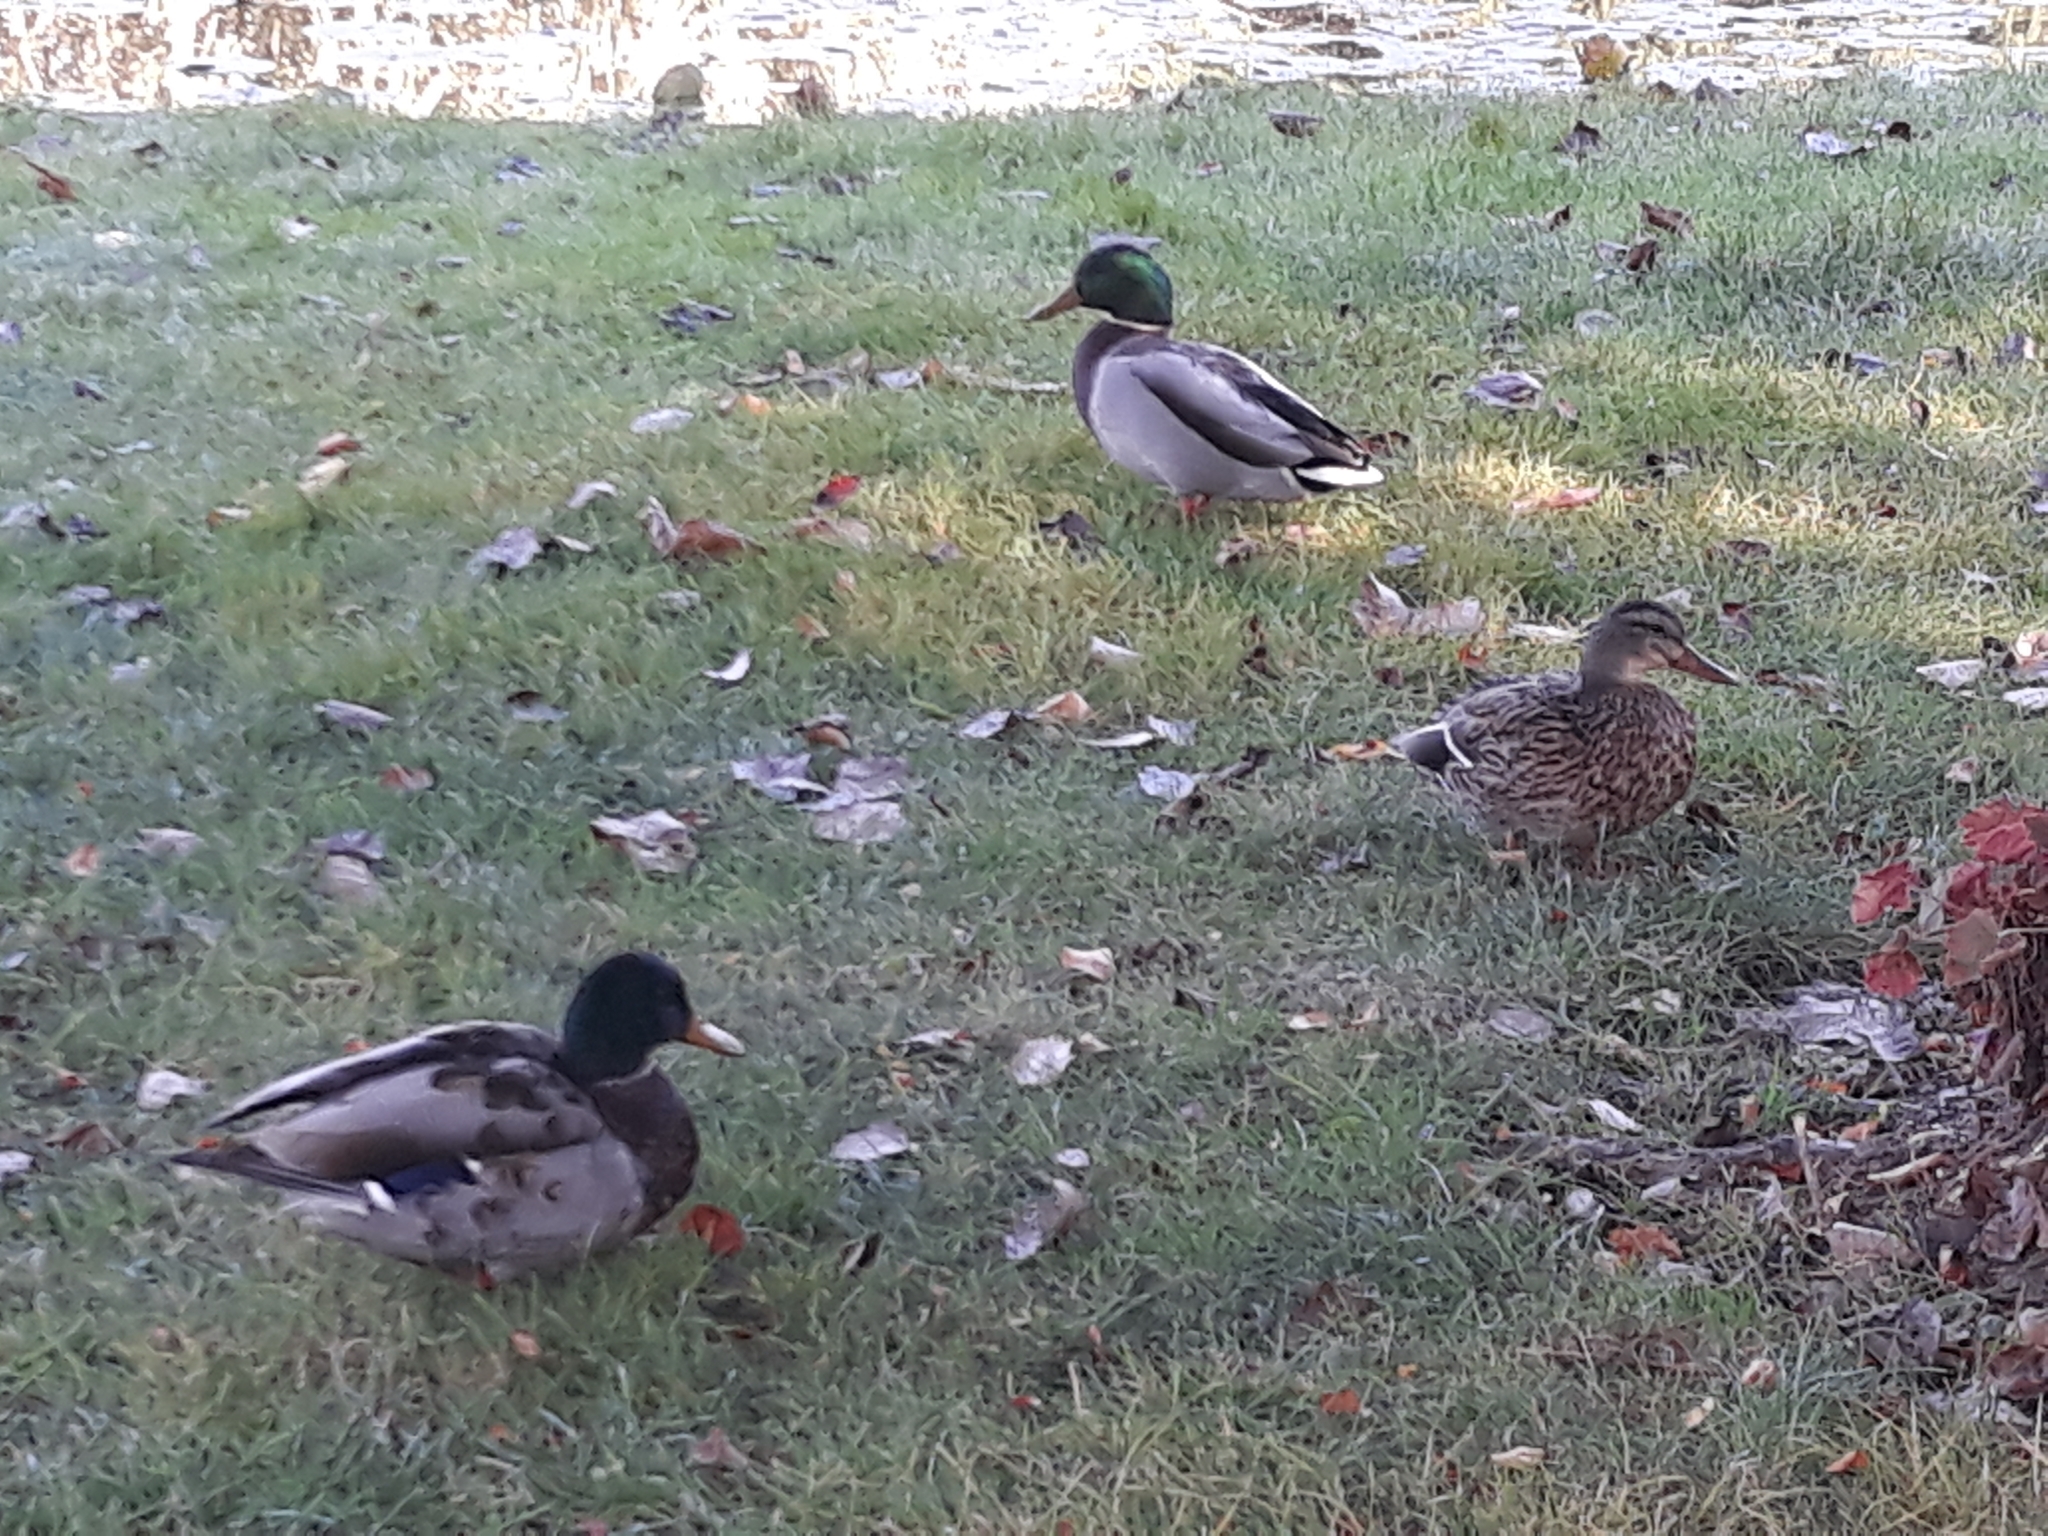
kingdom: Animalia
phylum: Chordata
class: Aves
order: Anseriformes
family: Anatidae
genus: Anas
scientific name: Anas platyrhynchos
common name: Mallard
